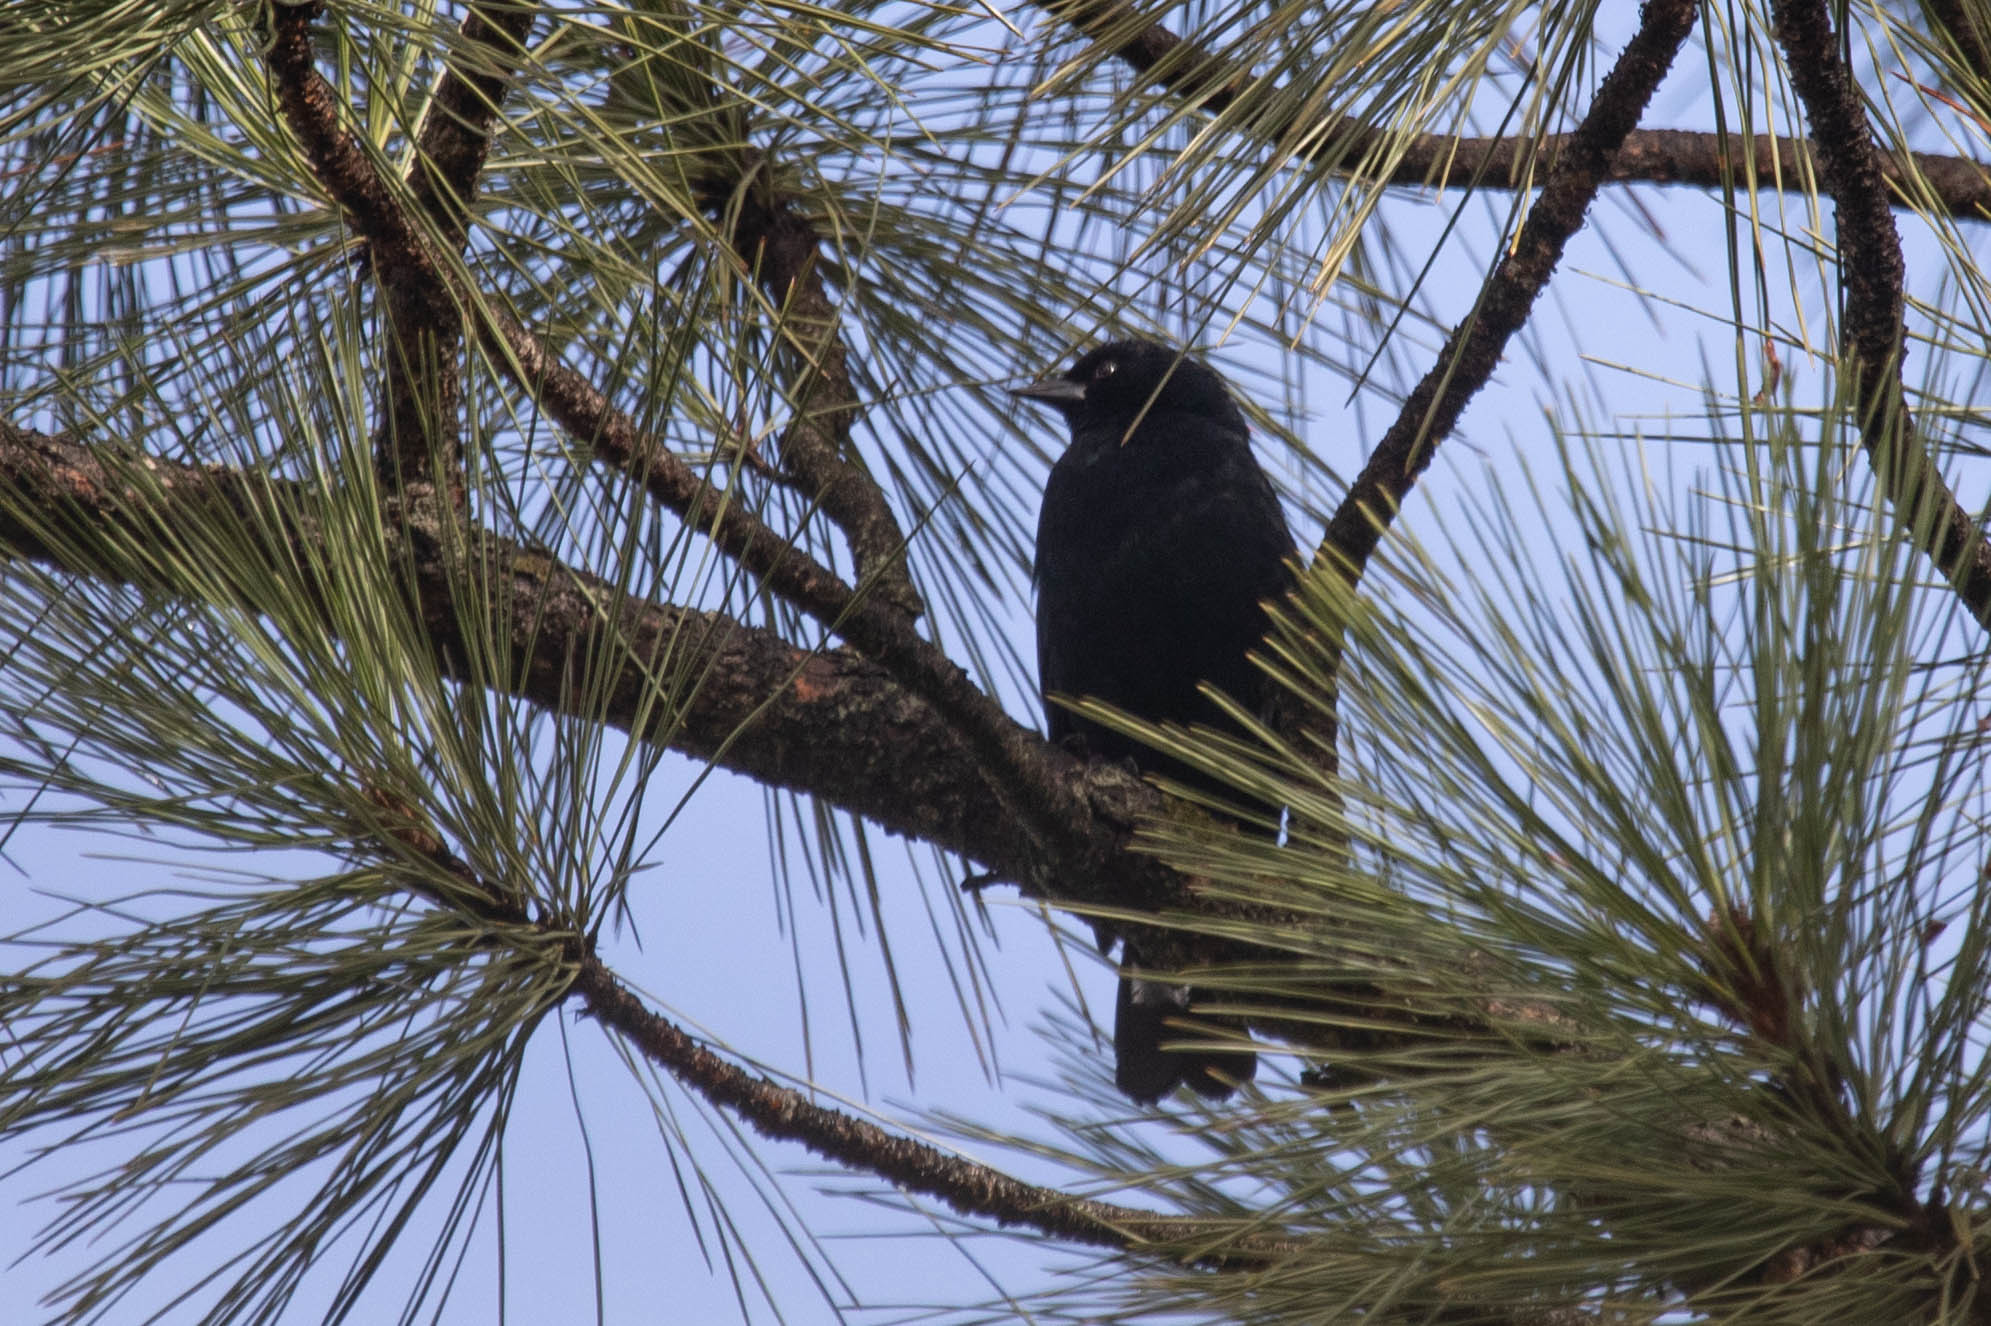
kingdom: Animalia
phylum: Chordata
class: Aves
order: Passeriformes
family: Icteridae
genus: Agelaius
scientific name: Agelaius phoeniceus
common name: Red-winged blackbird
